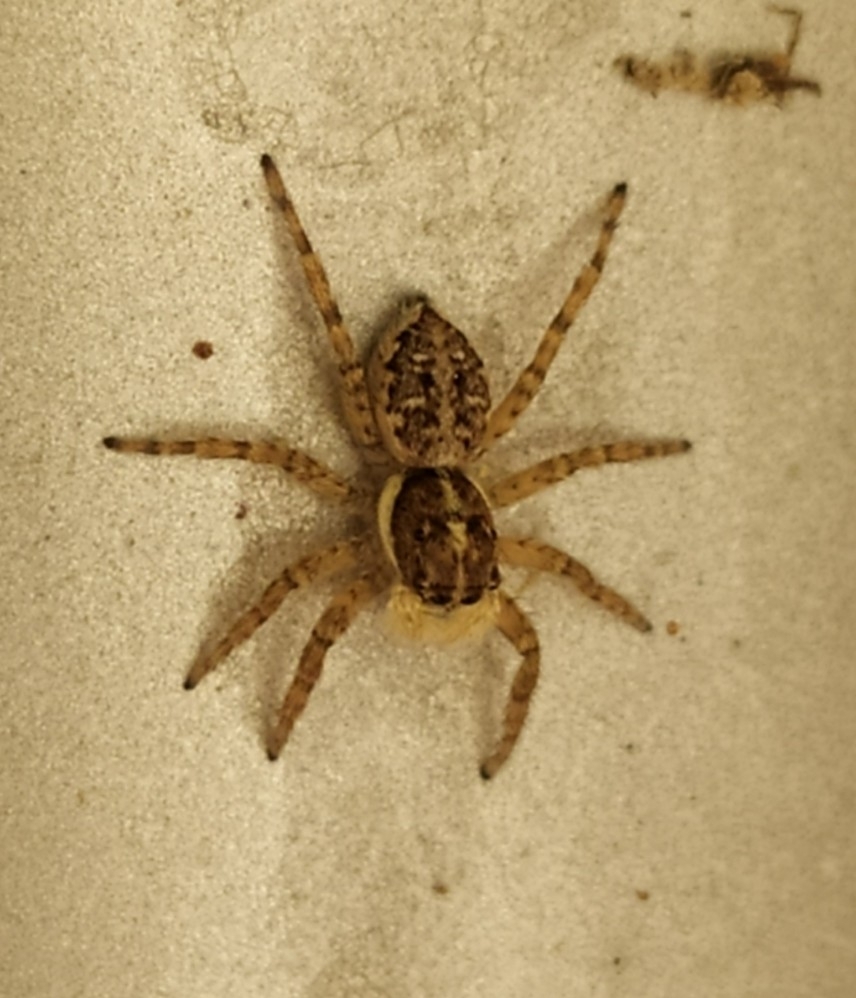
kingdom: Animalia
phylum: Arthropoda
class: Arachnida
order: Araneae
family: Salticidae
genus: Menemerus
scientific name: Menemerus semilimbatus
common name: Jumping spider
